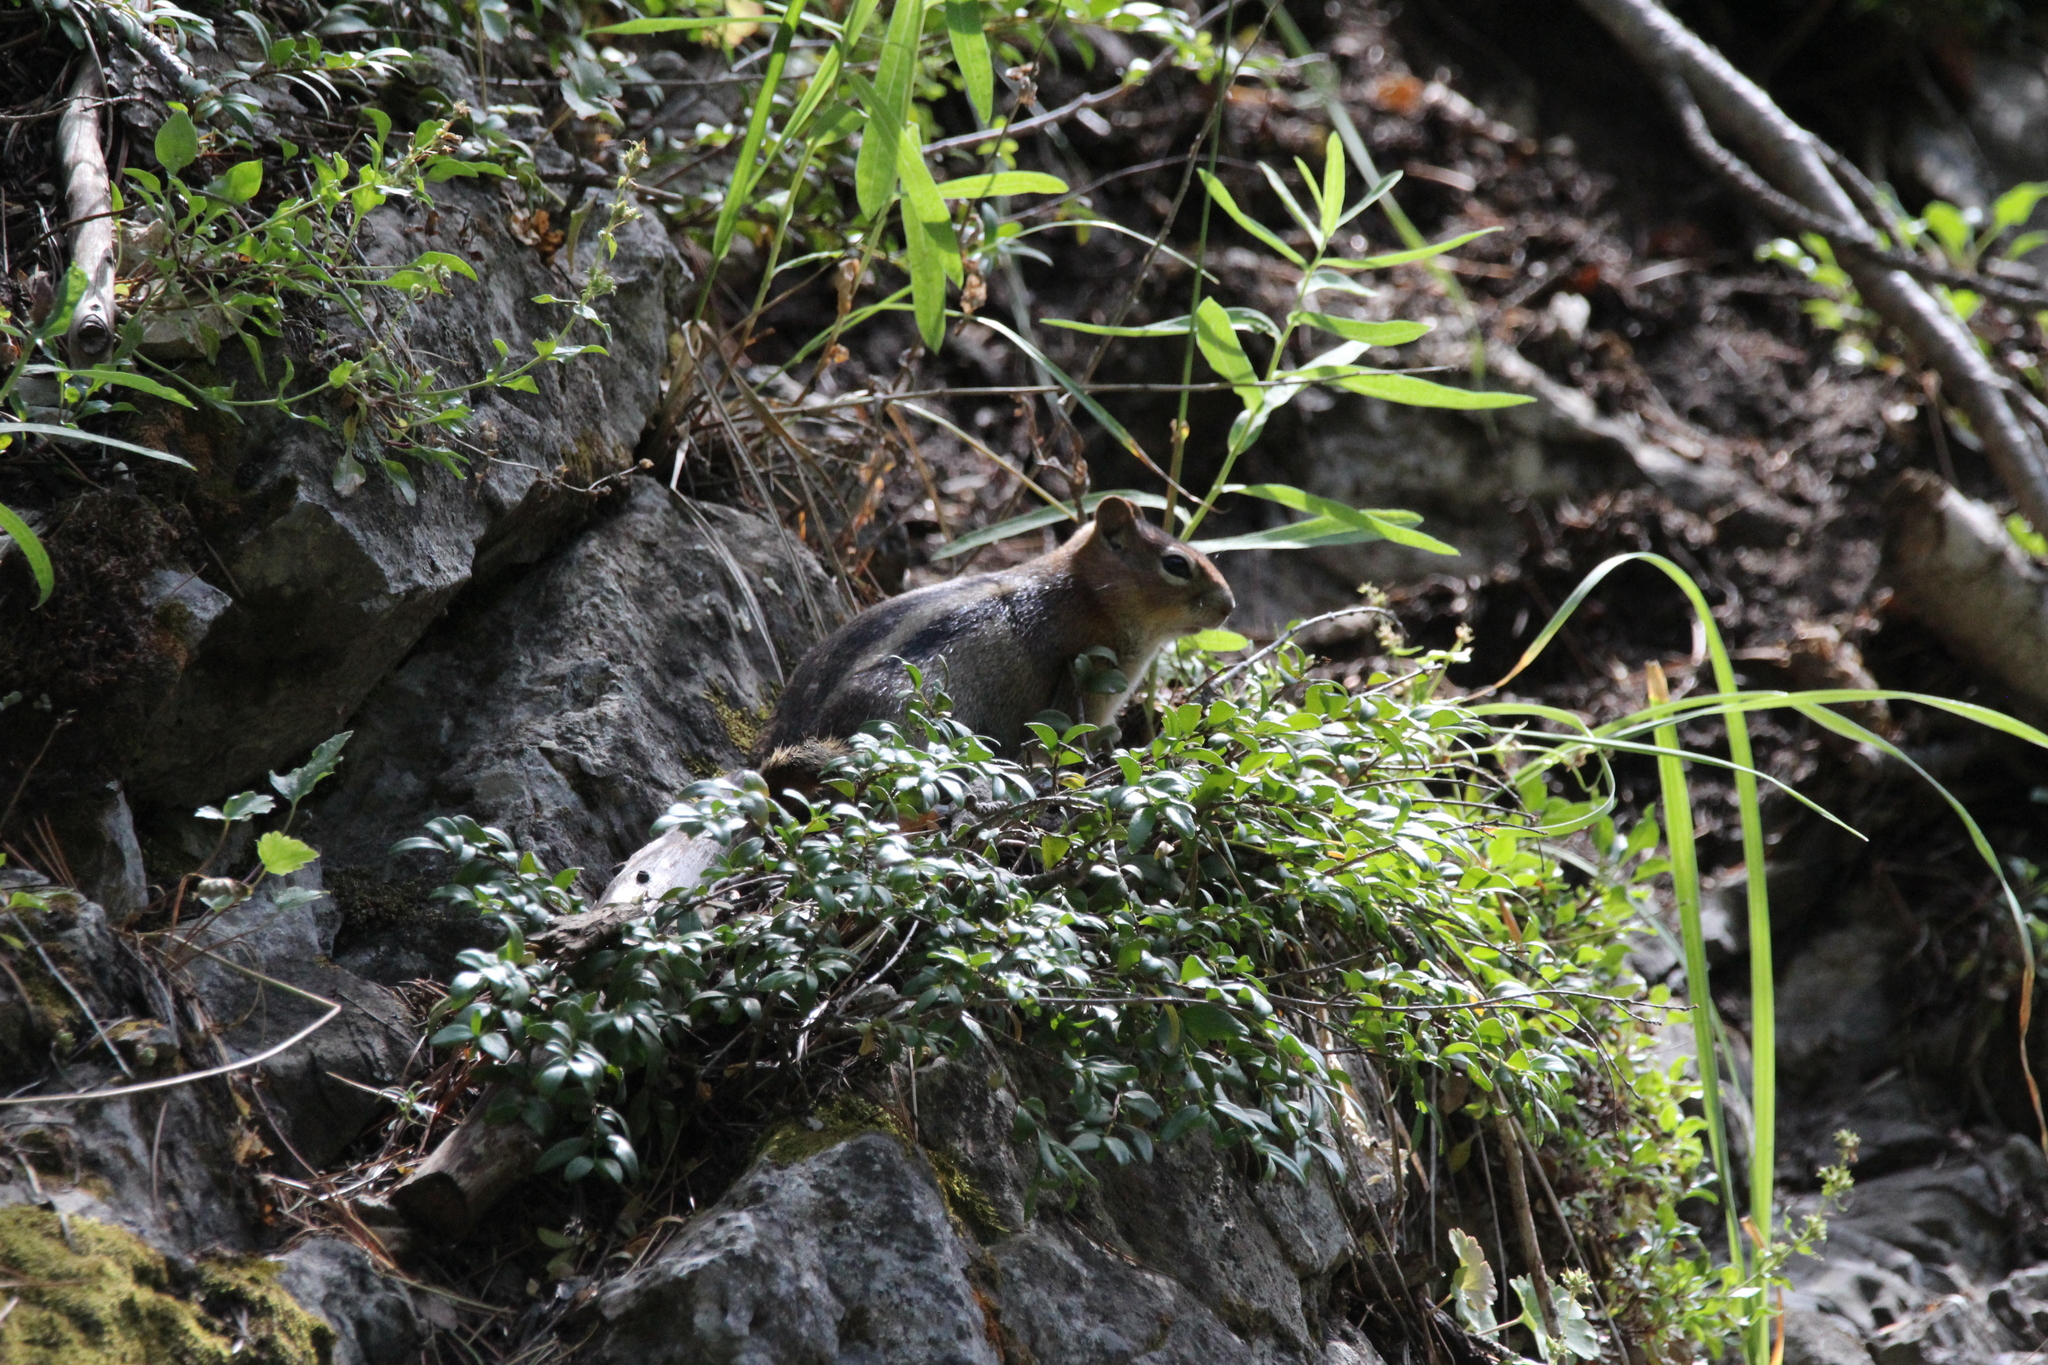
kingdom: Animalia
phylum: Chordata
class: Mammalia
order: Rodentia
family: Sciuridae
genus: Callospermophilus
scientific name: Callospermophilus lateralis
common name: Golden-mantled ground squirrel
